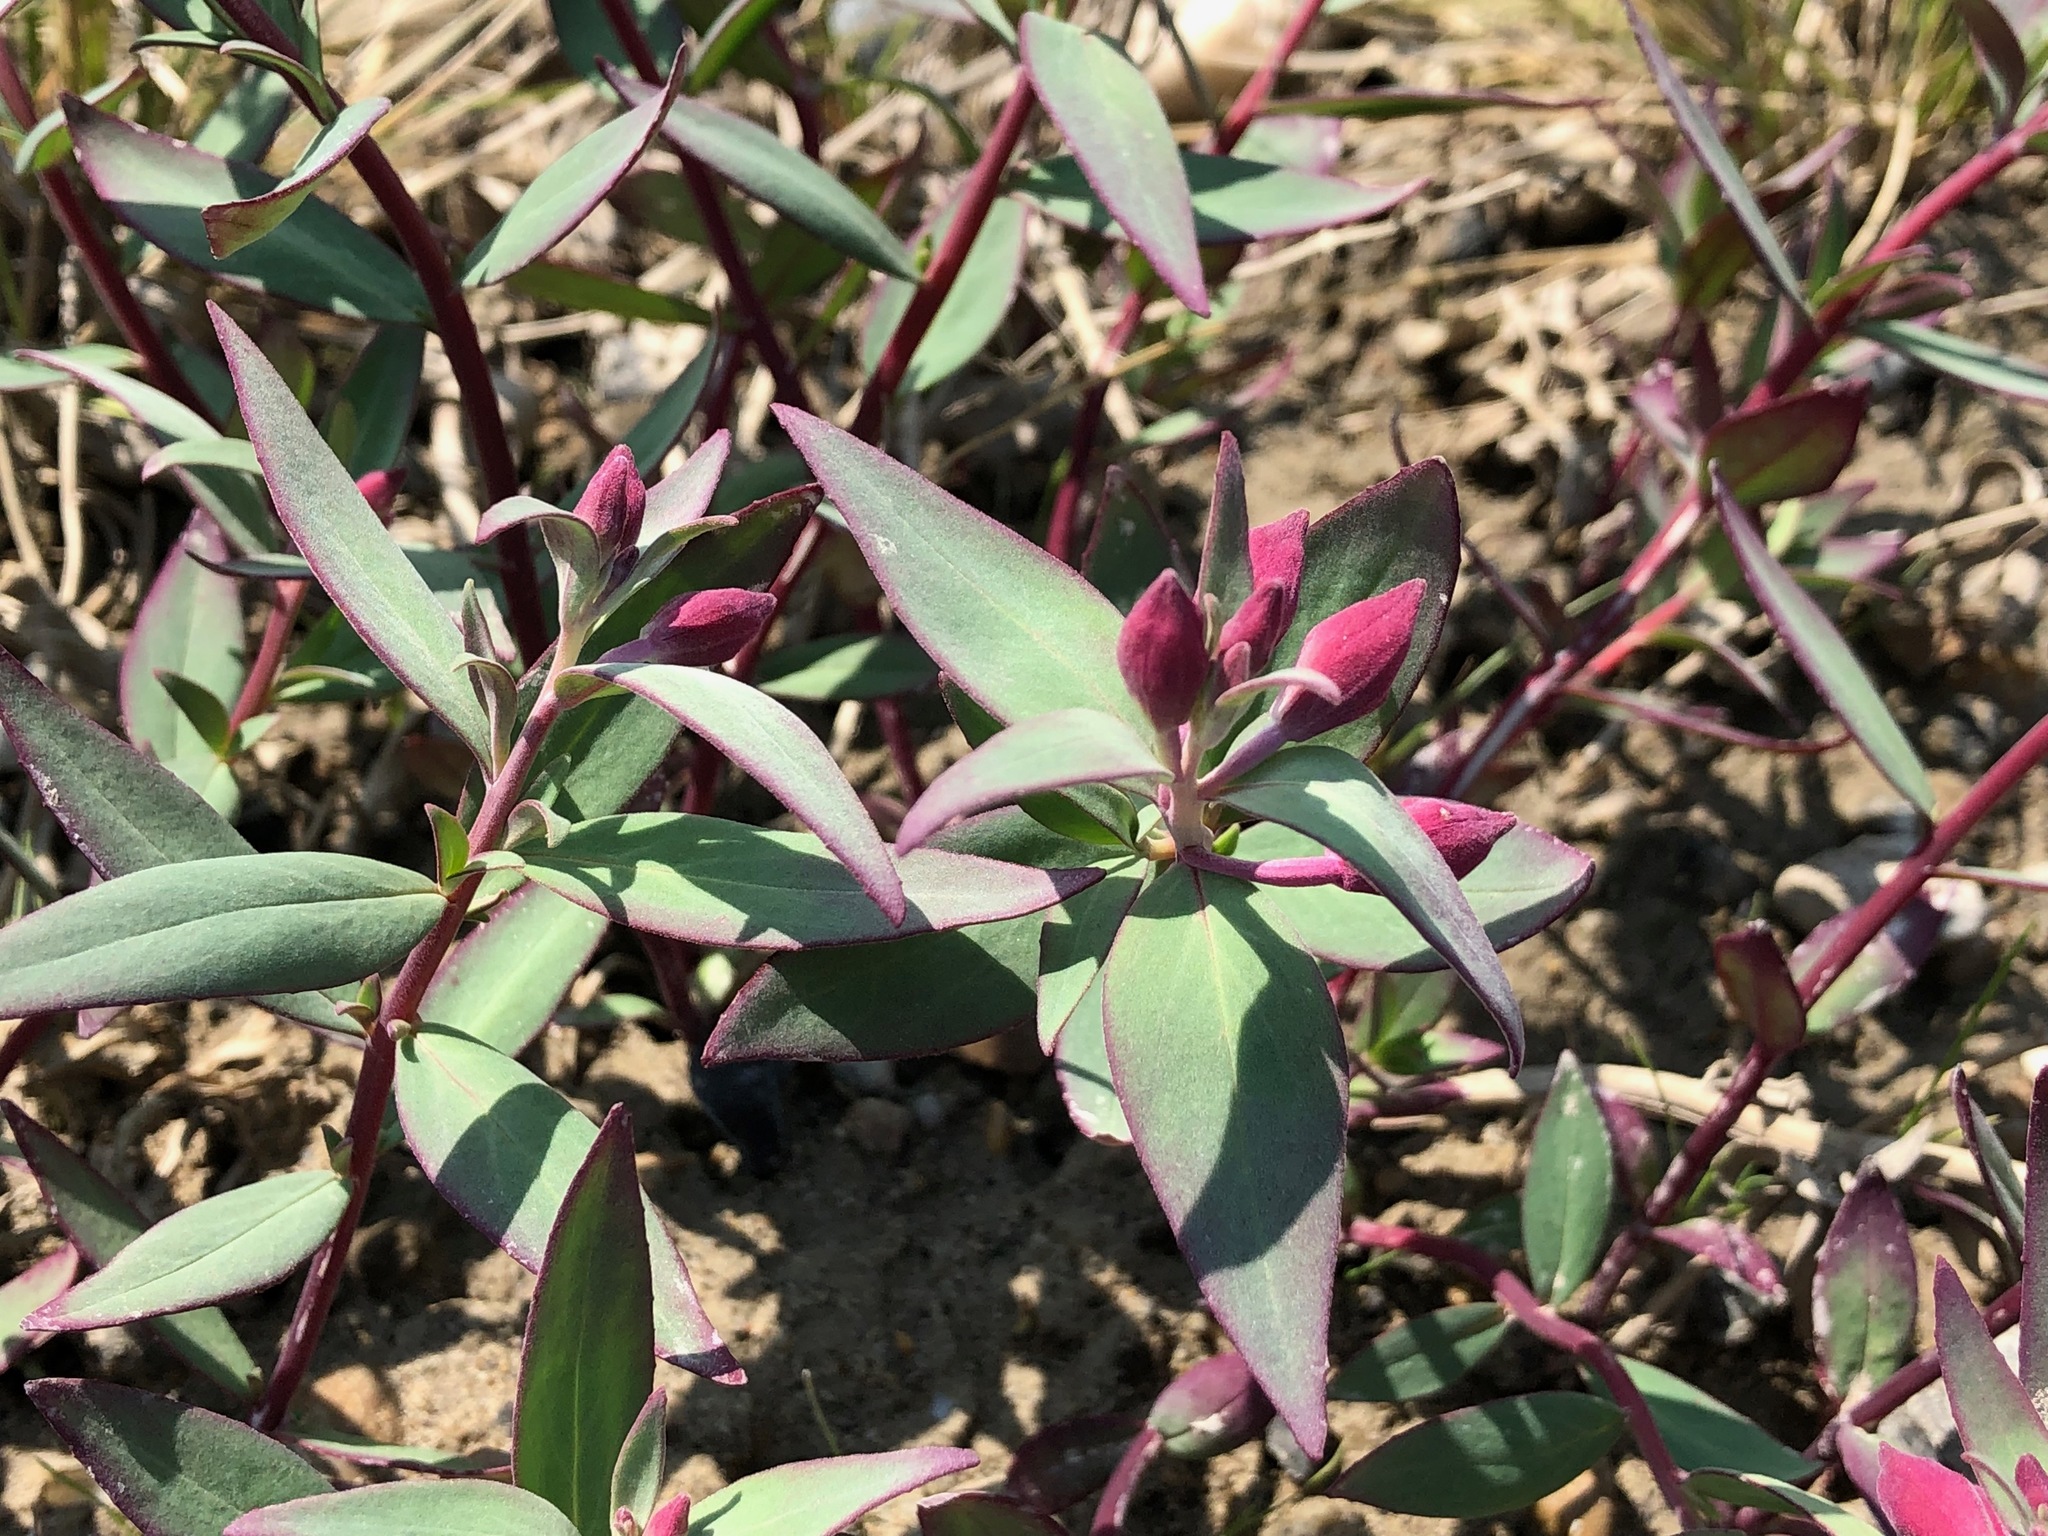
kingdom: Plantae
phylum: Tracheophyta
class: Magnoliopsida
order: Myrtales
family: Onagraceae
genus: Chamaenerion
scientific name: Chamaenerion latifolium
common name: Dwarf fireweed
